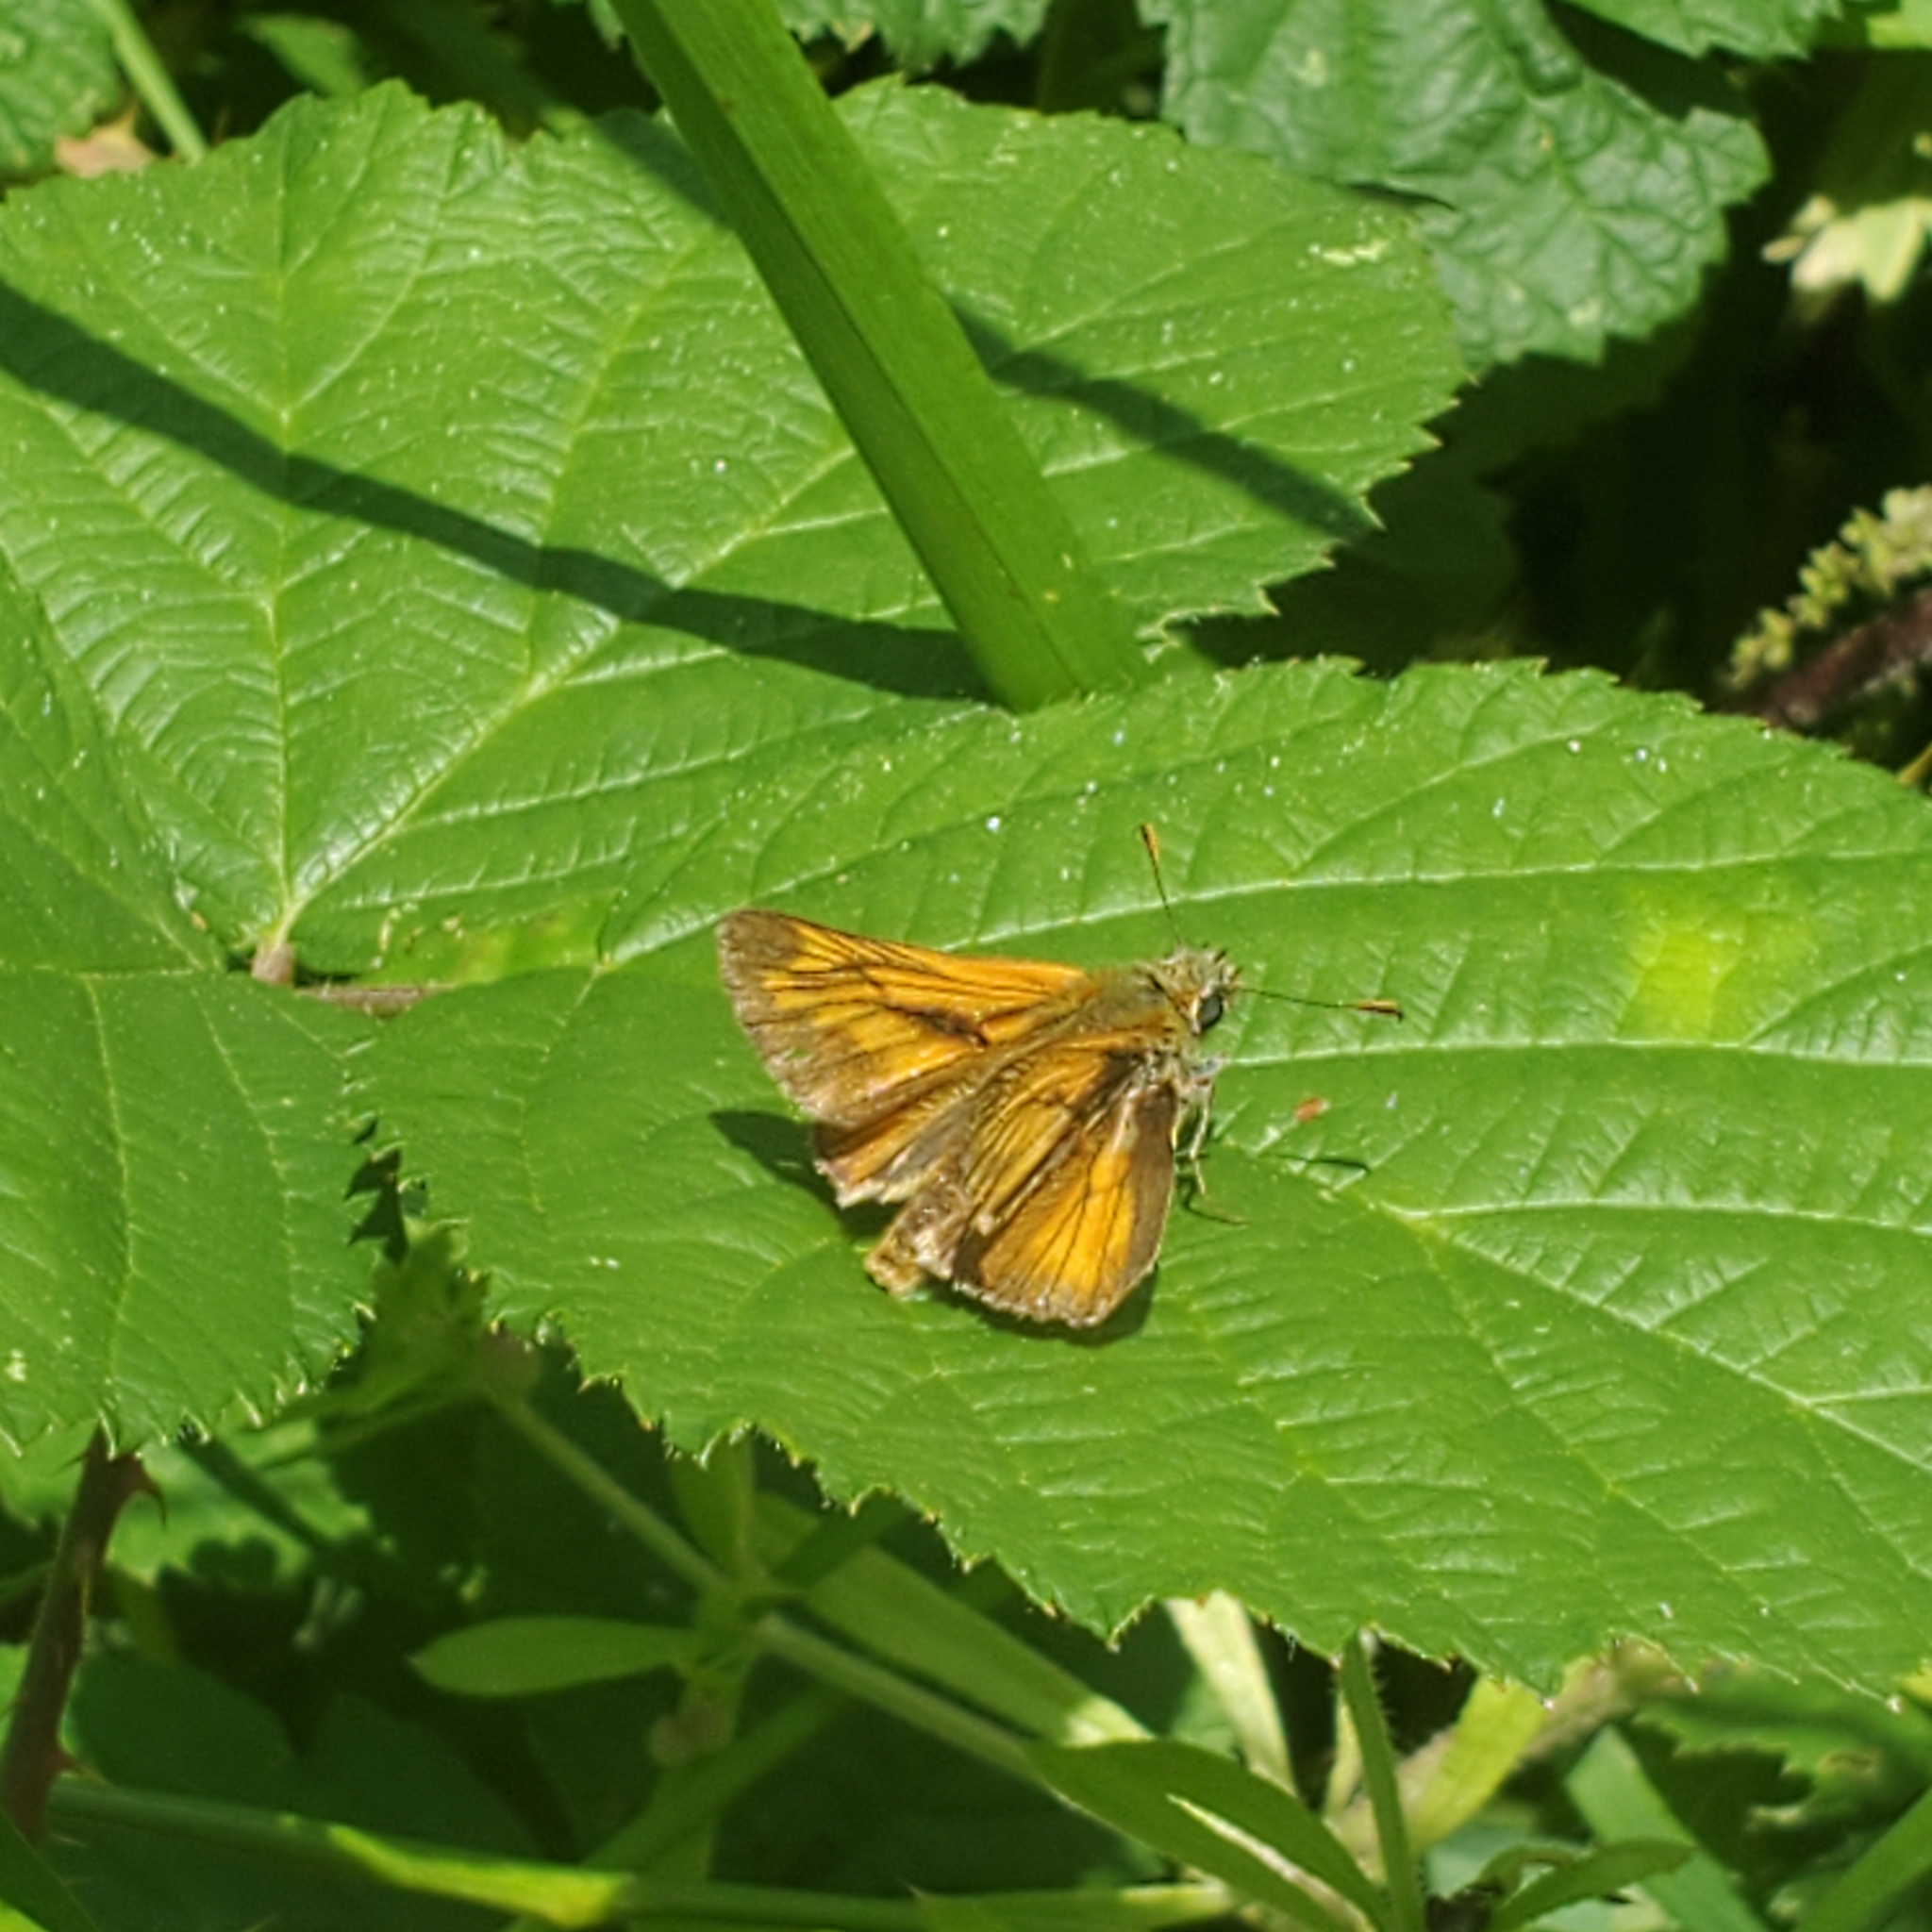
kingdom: Animalia
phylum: Arthropoda
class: Insecta
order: Lepidoptera
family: Hesperiidae
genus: Ochlodes
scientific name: Ochlodes venata
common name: Large skipper
